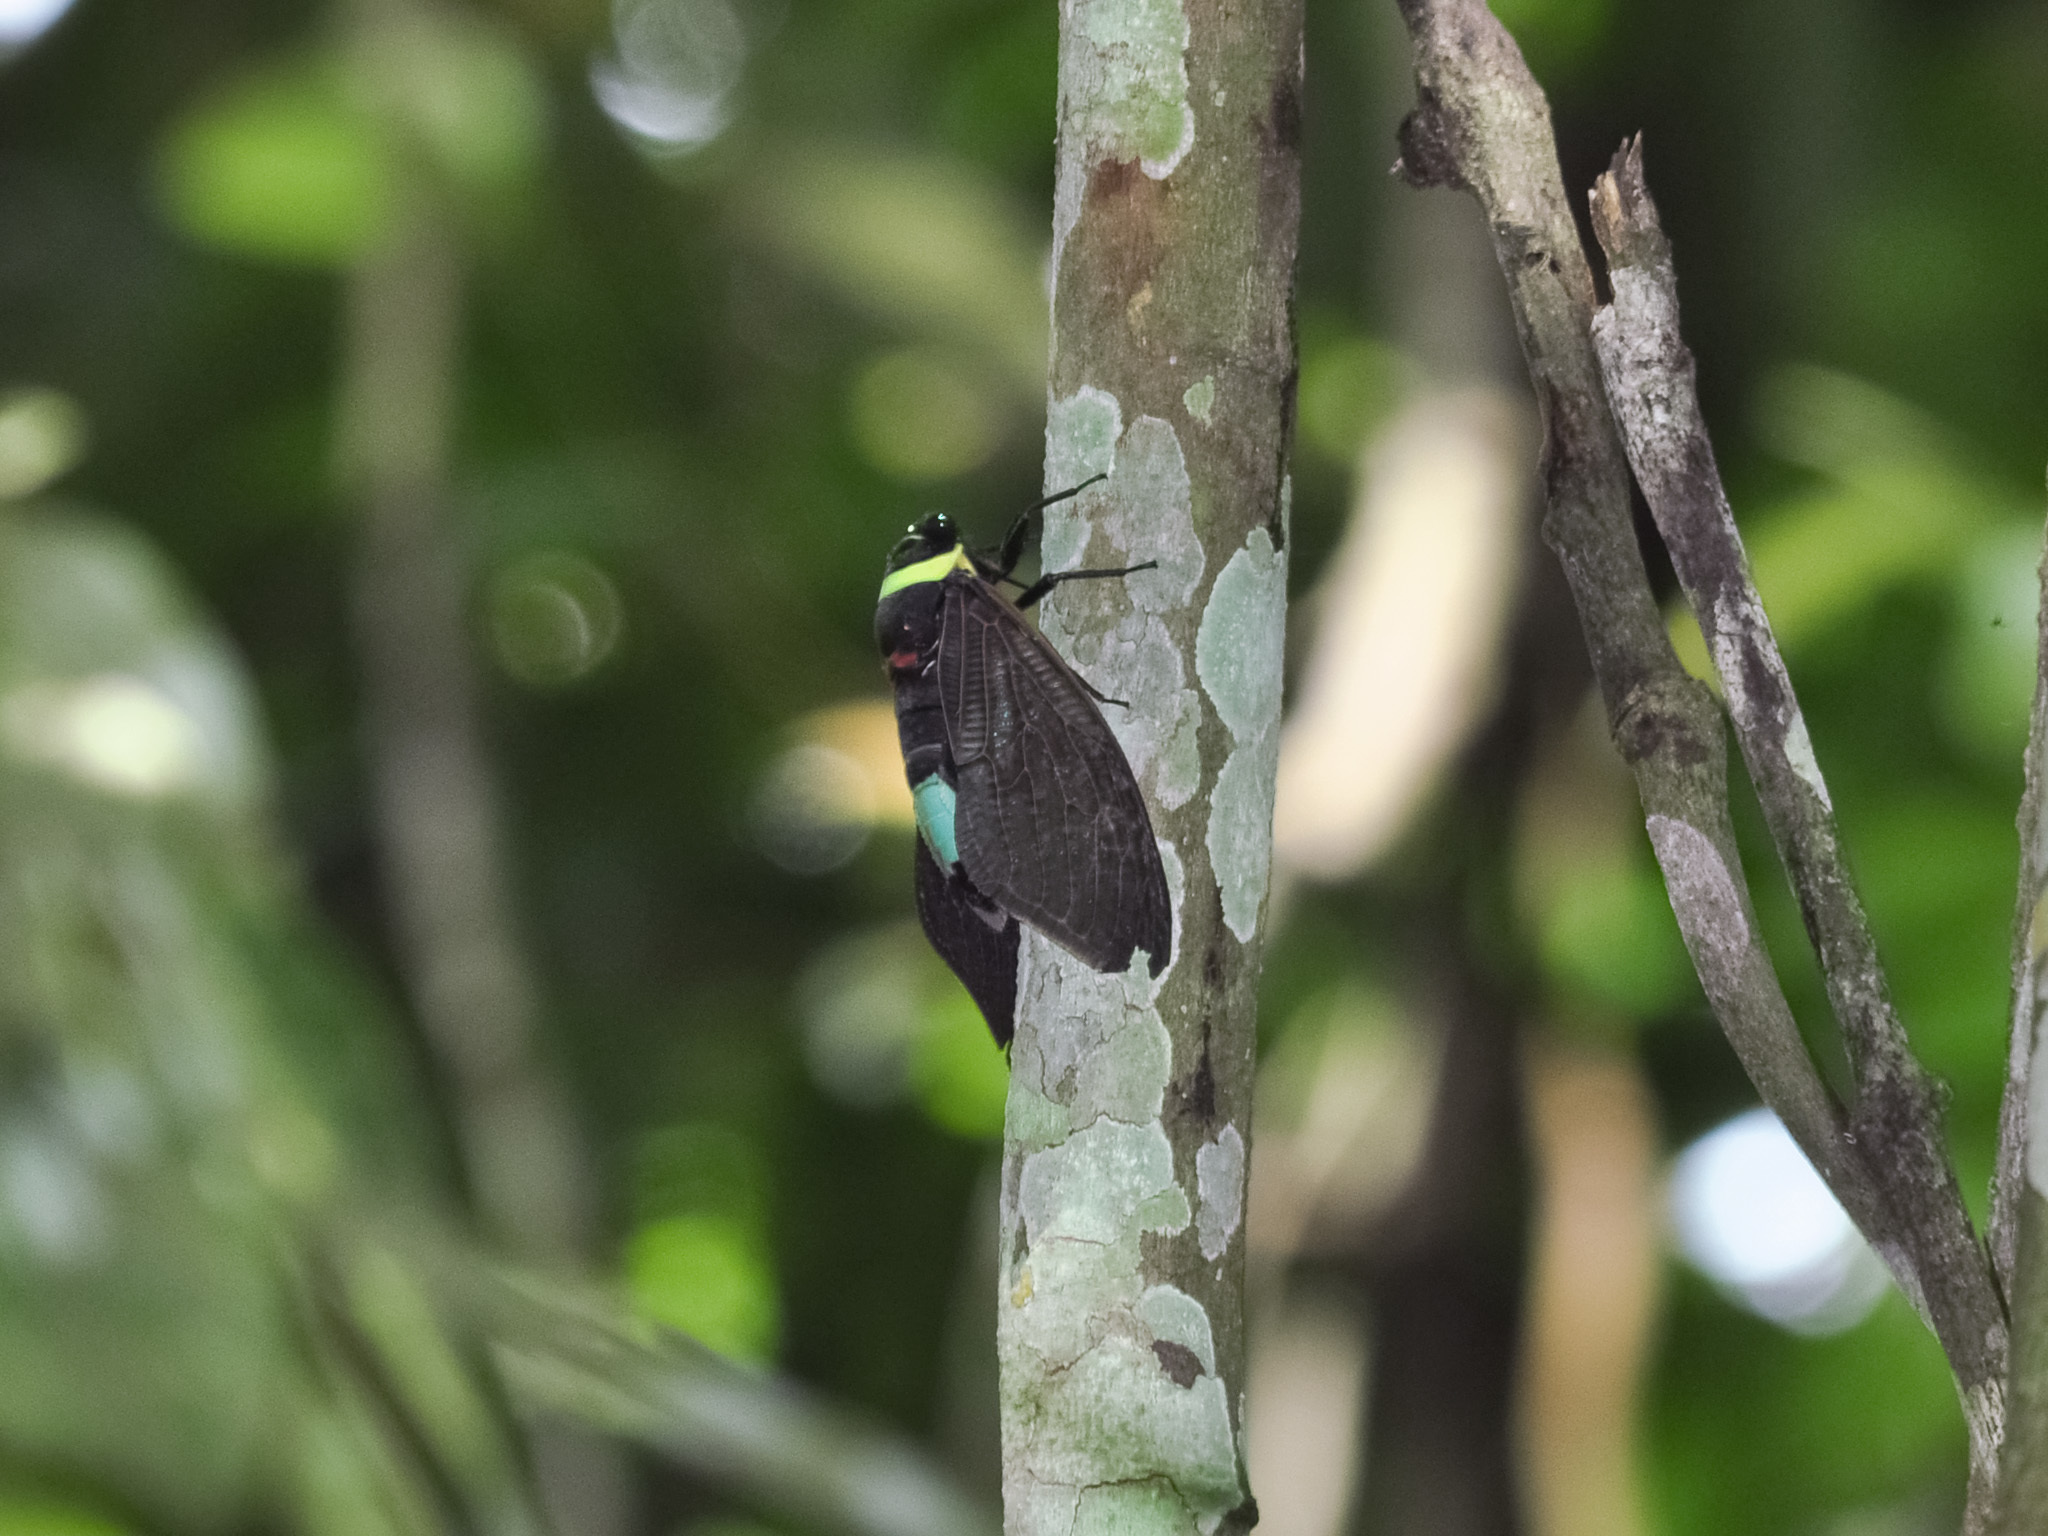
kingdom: Animalia
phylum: Arthropoda
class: Insecta
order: Hemiptera
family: Cicadidae
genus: Tacua
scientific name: Tacua speciosa
